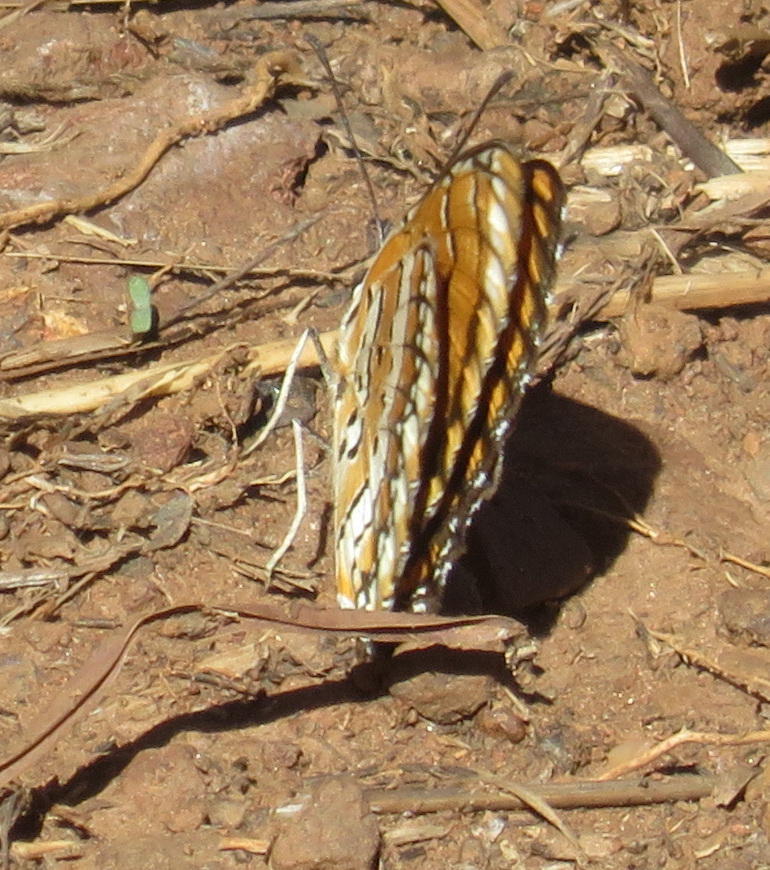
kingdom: Animalia
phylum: Arthropoda
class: Insecta
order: Lepidoptera
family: Nymphalidae
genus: Byblia
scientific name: Byblia ilithyia
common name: Spotted joker
